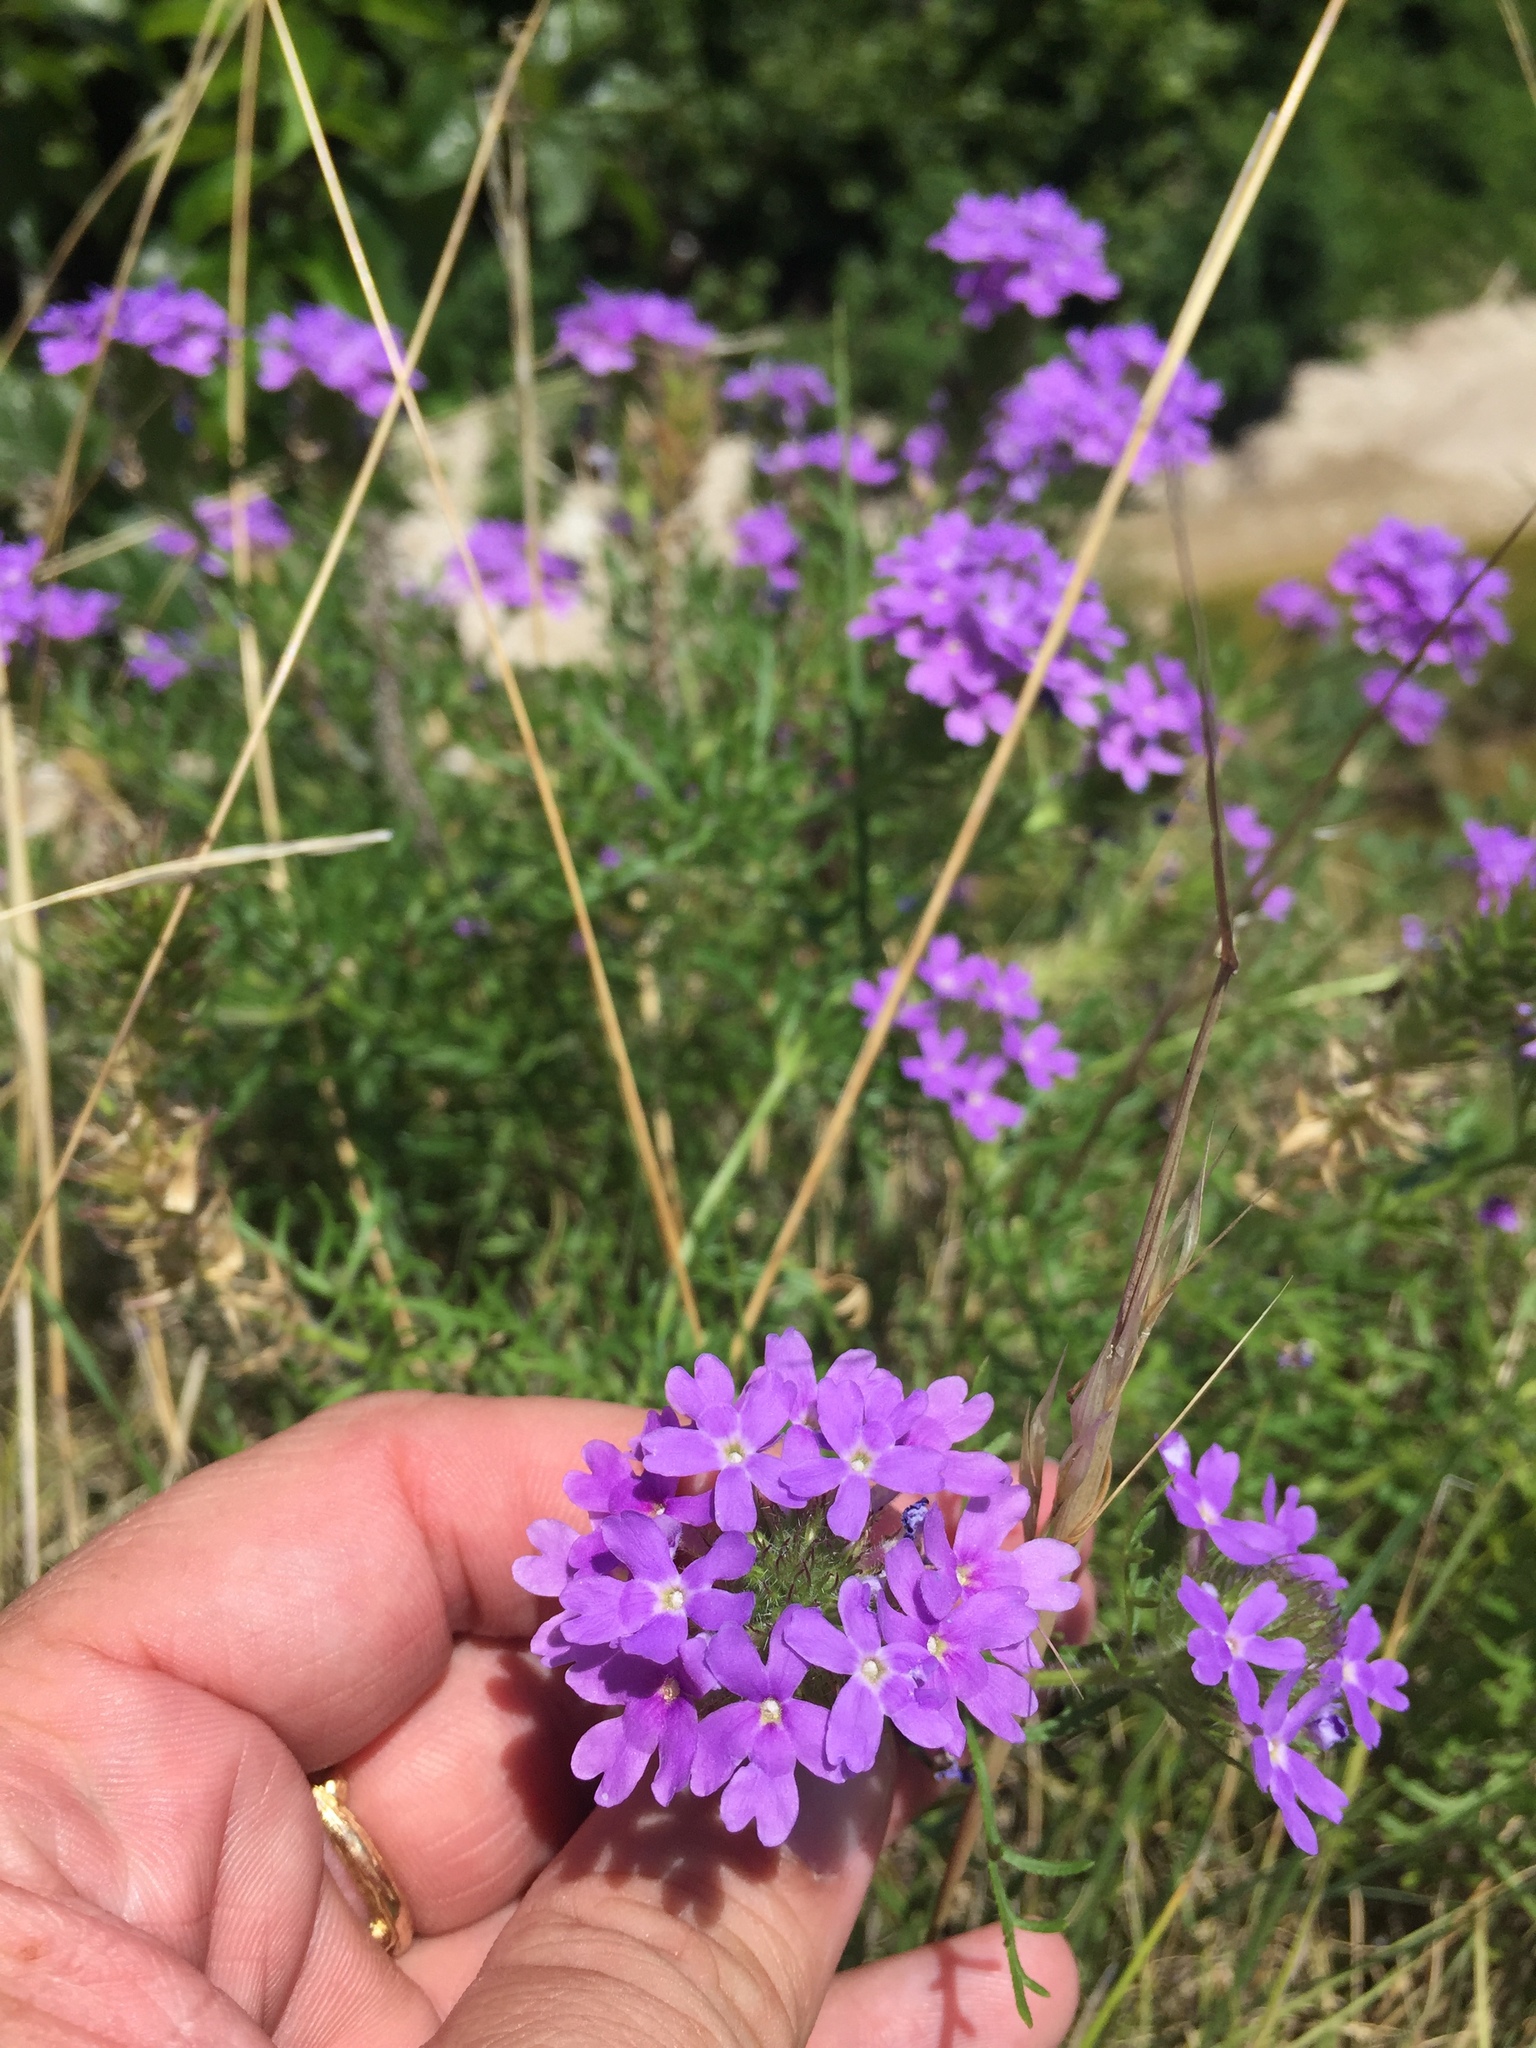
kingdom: Plantae
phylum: Tracheophyta
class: Magnoliopsida
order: Lamiales
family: Verbenaceae
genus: Verbena
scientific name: Verbena bipinnatifida
